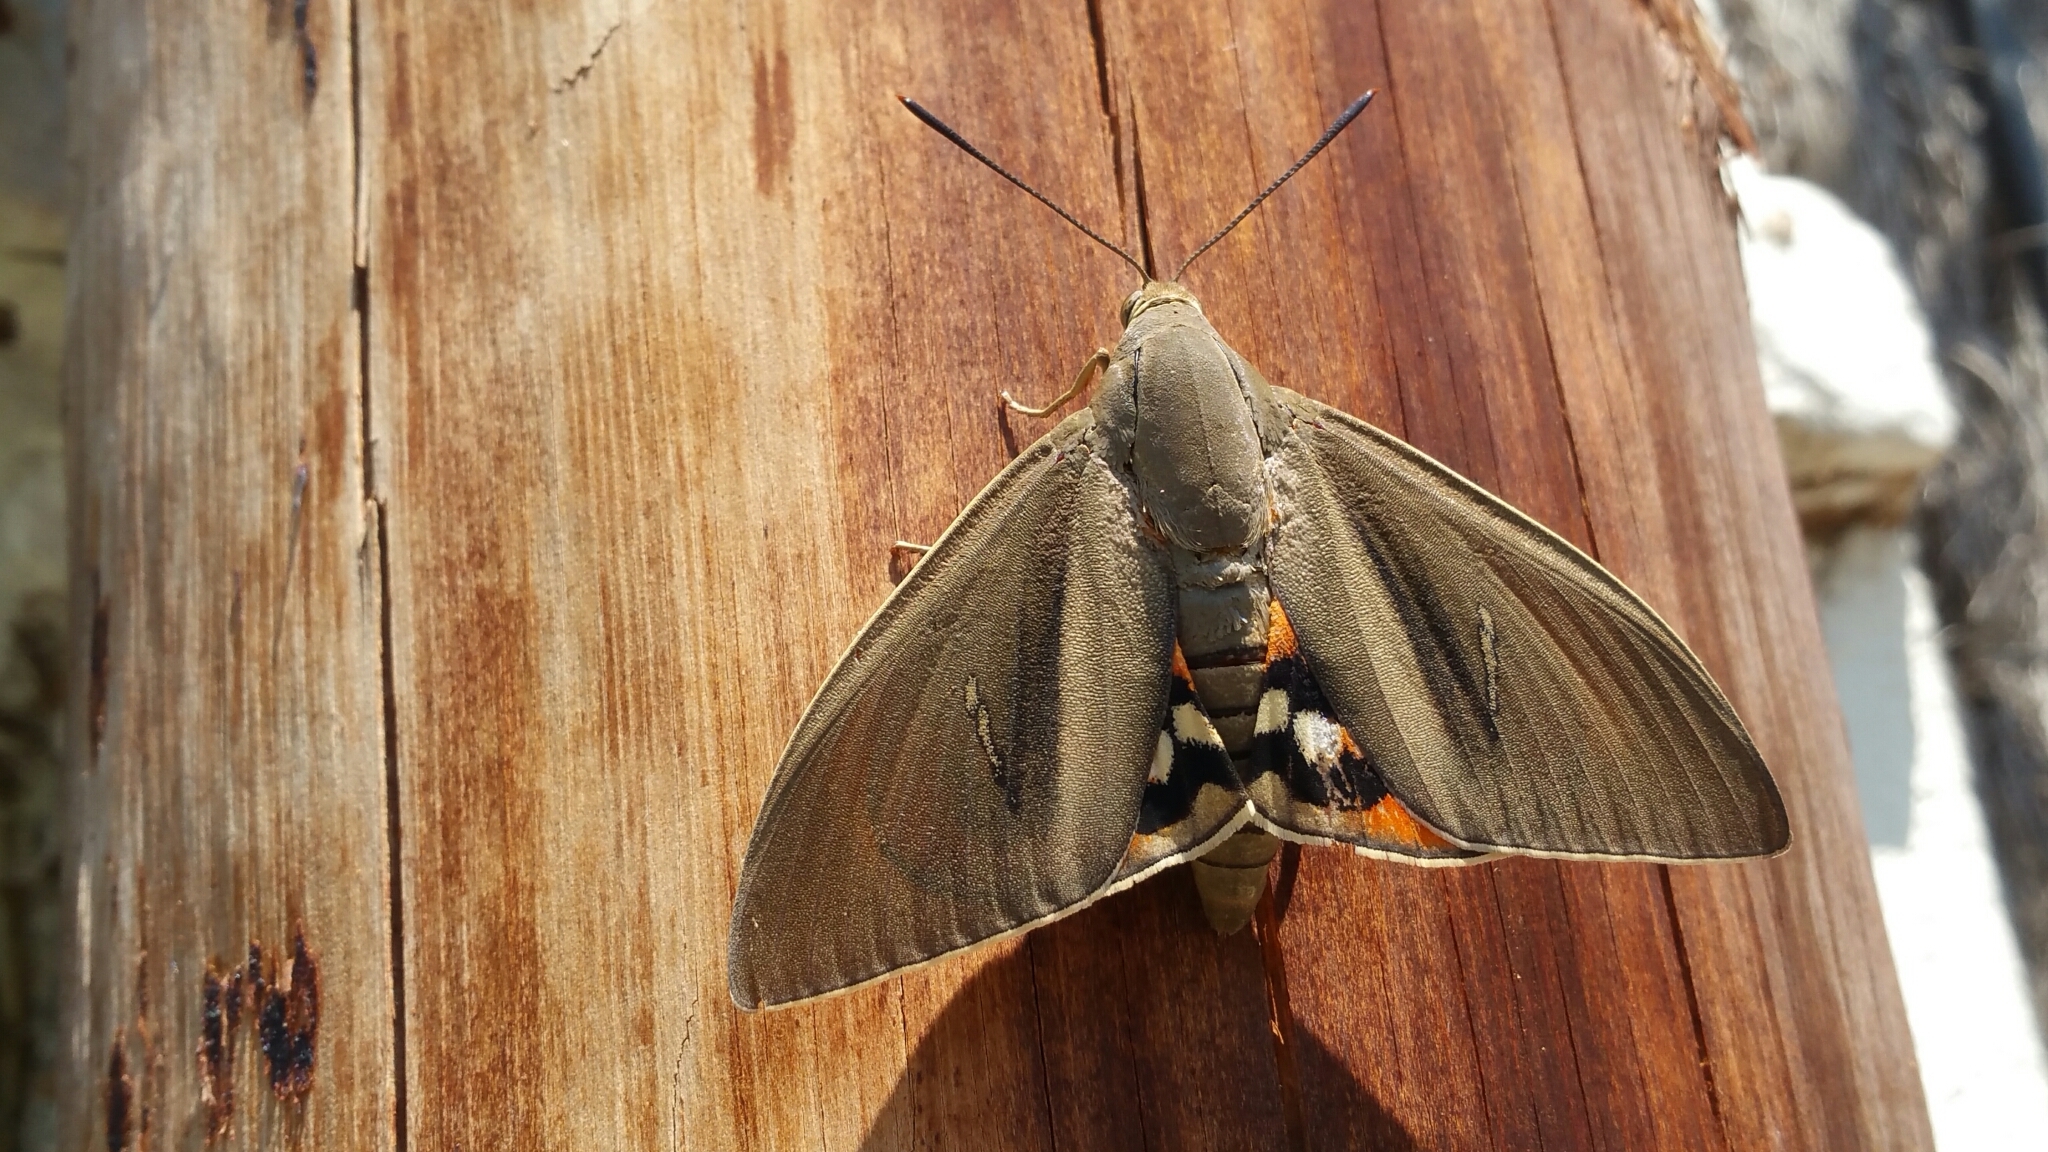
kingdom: Animalia
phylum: Arthropoda
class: Insecta
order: Lepidoptera
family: Castniidae
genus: Paysandisia
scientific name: Paysandisia archon
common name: Palm moth
